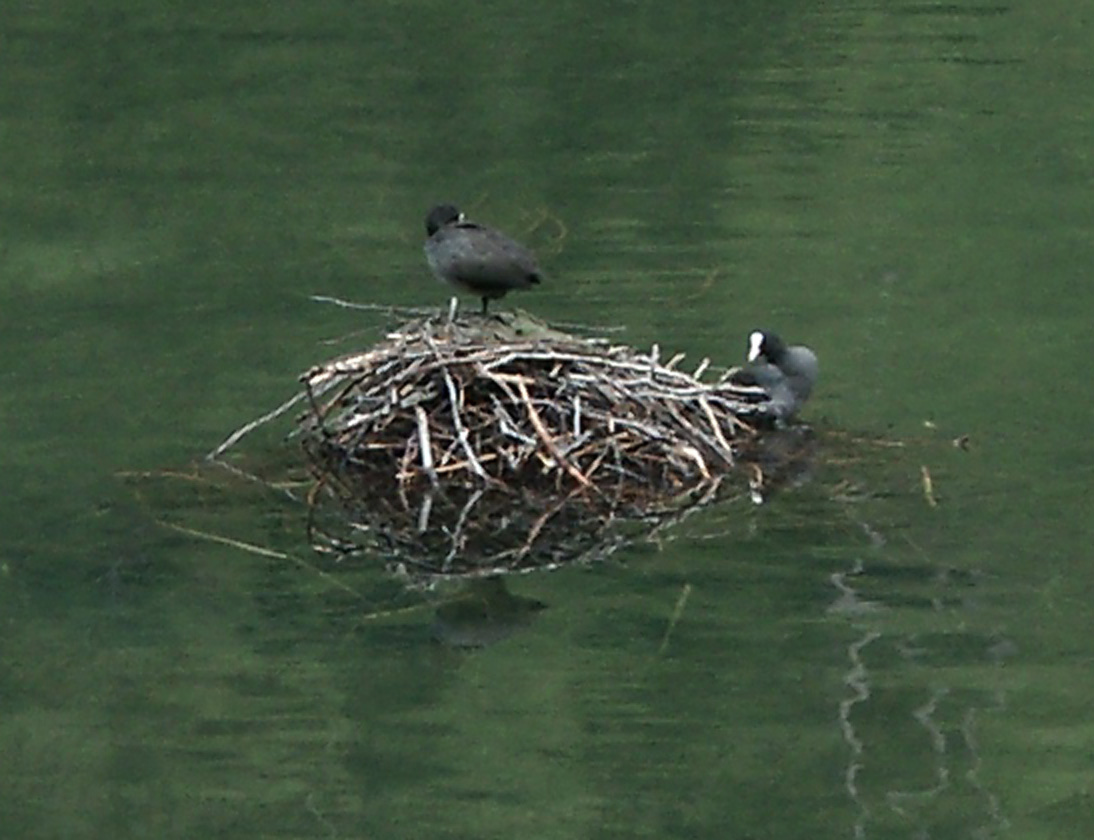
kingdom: Animalia
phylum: Chordata
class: Aves
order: Gruiformes
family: Rallidae
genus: Fulica
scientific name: Fulica atra
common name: Eurasian coot
